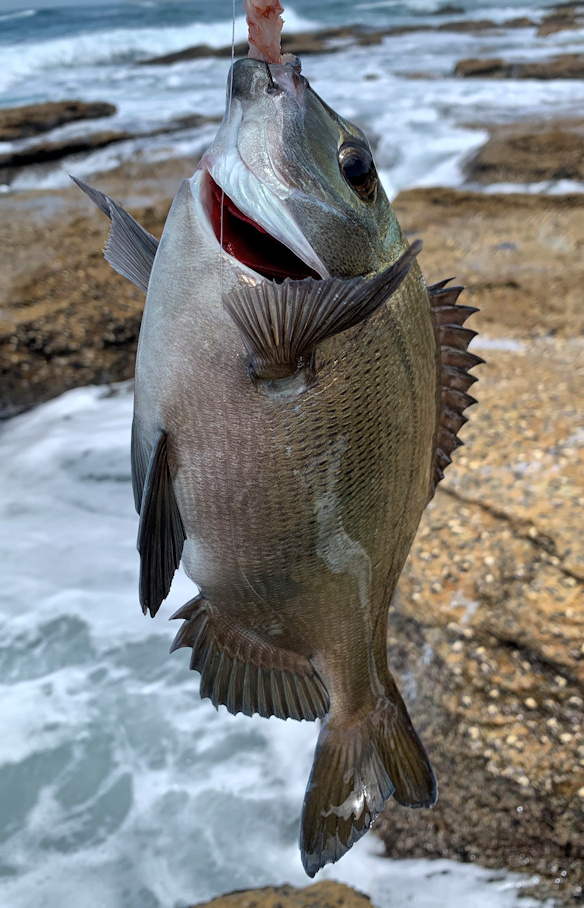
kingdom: Animalia
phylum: Chordata
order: Perciformes
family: Sparidae
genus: Pachymetopon
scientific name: Pachymetopon grande
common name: Bronze bream
